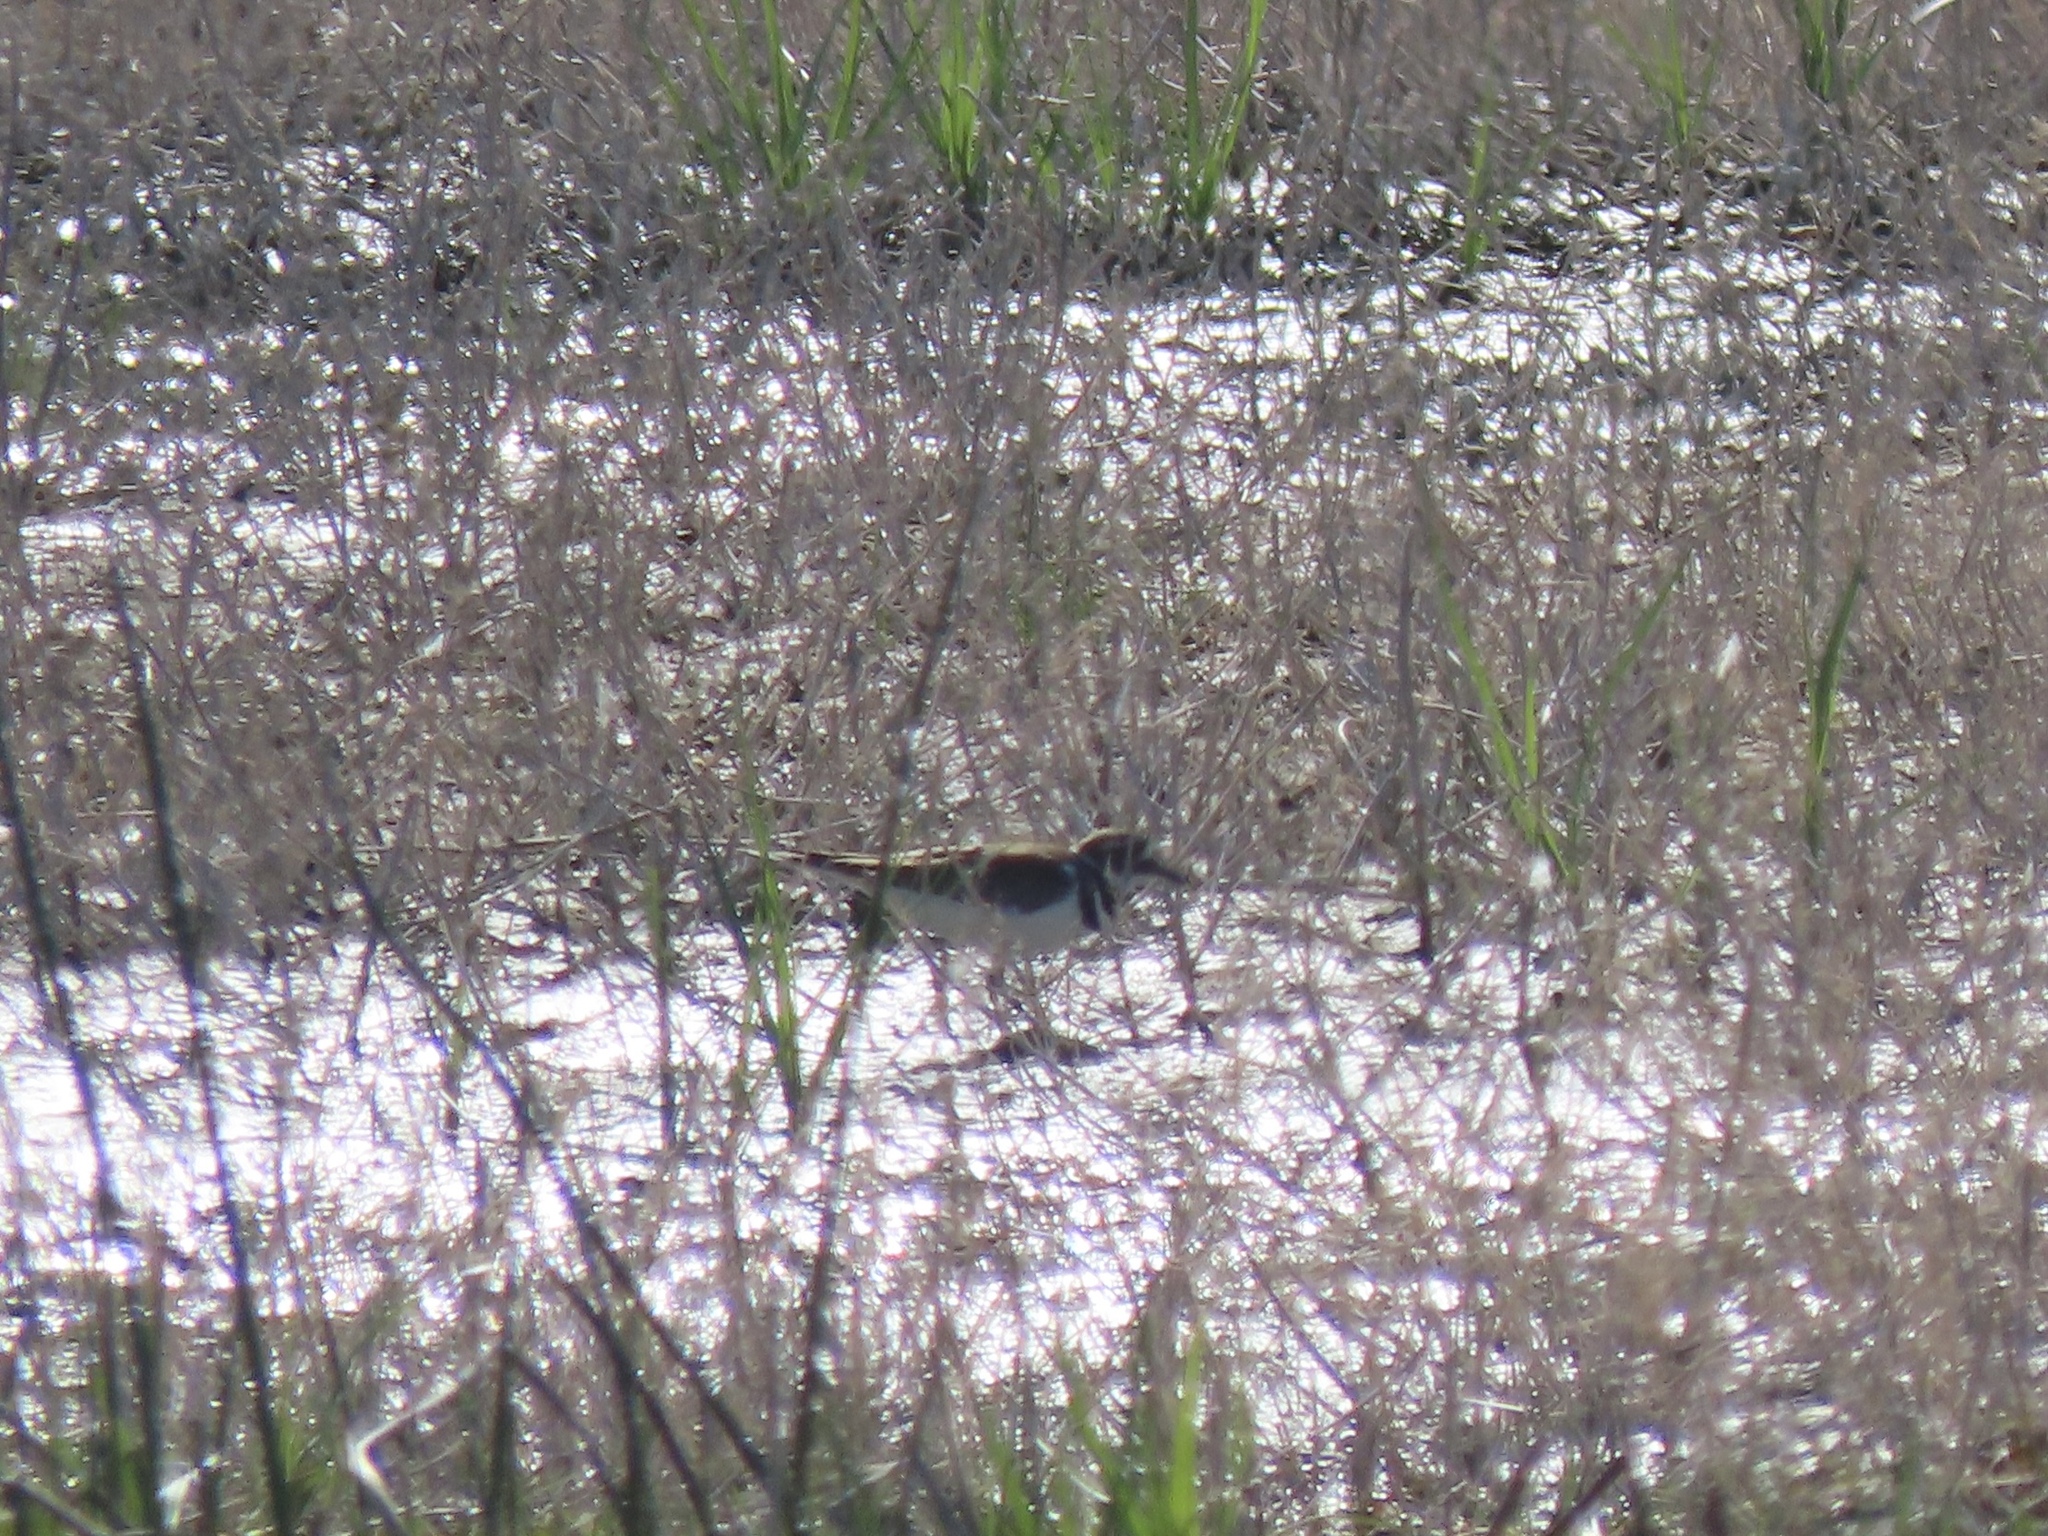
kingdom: Animalia
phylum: Chordata
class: Aves
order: Charadriiformes
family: Charadriidae
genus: Charadrius
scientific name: Charadrius vociferus
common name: Killdeer
